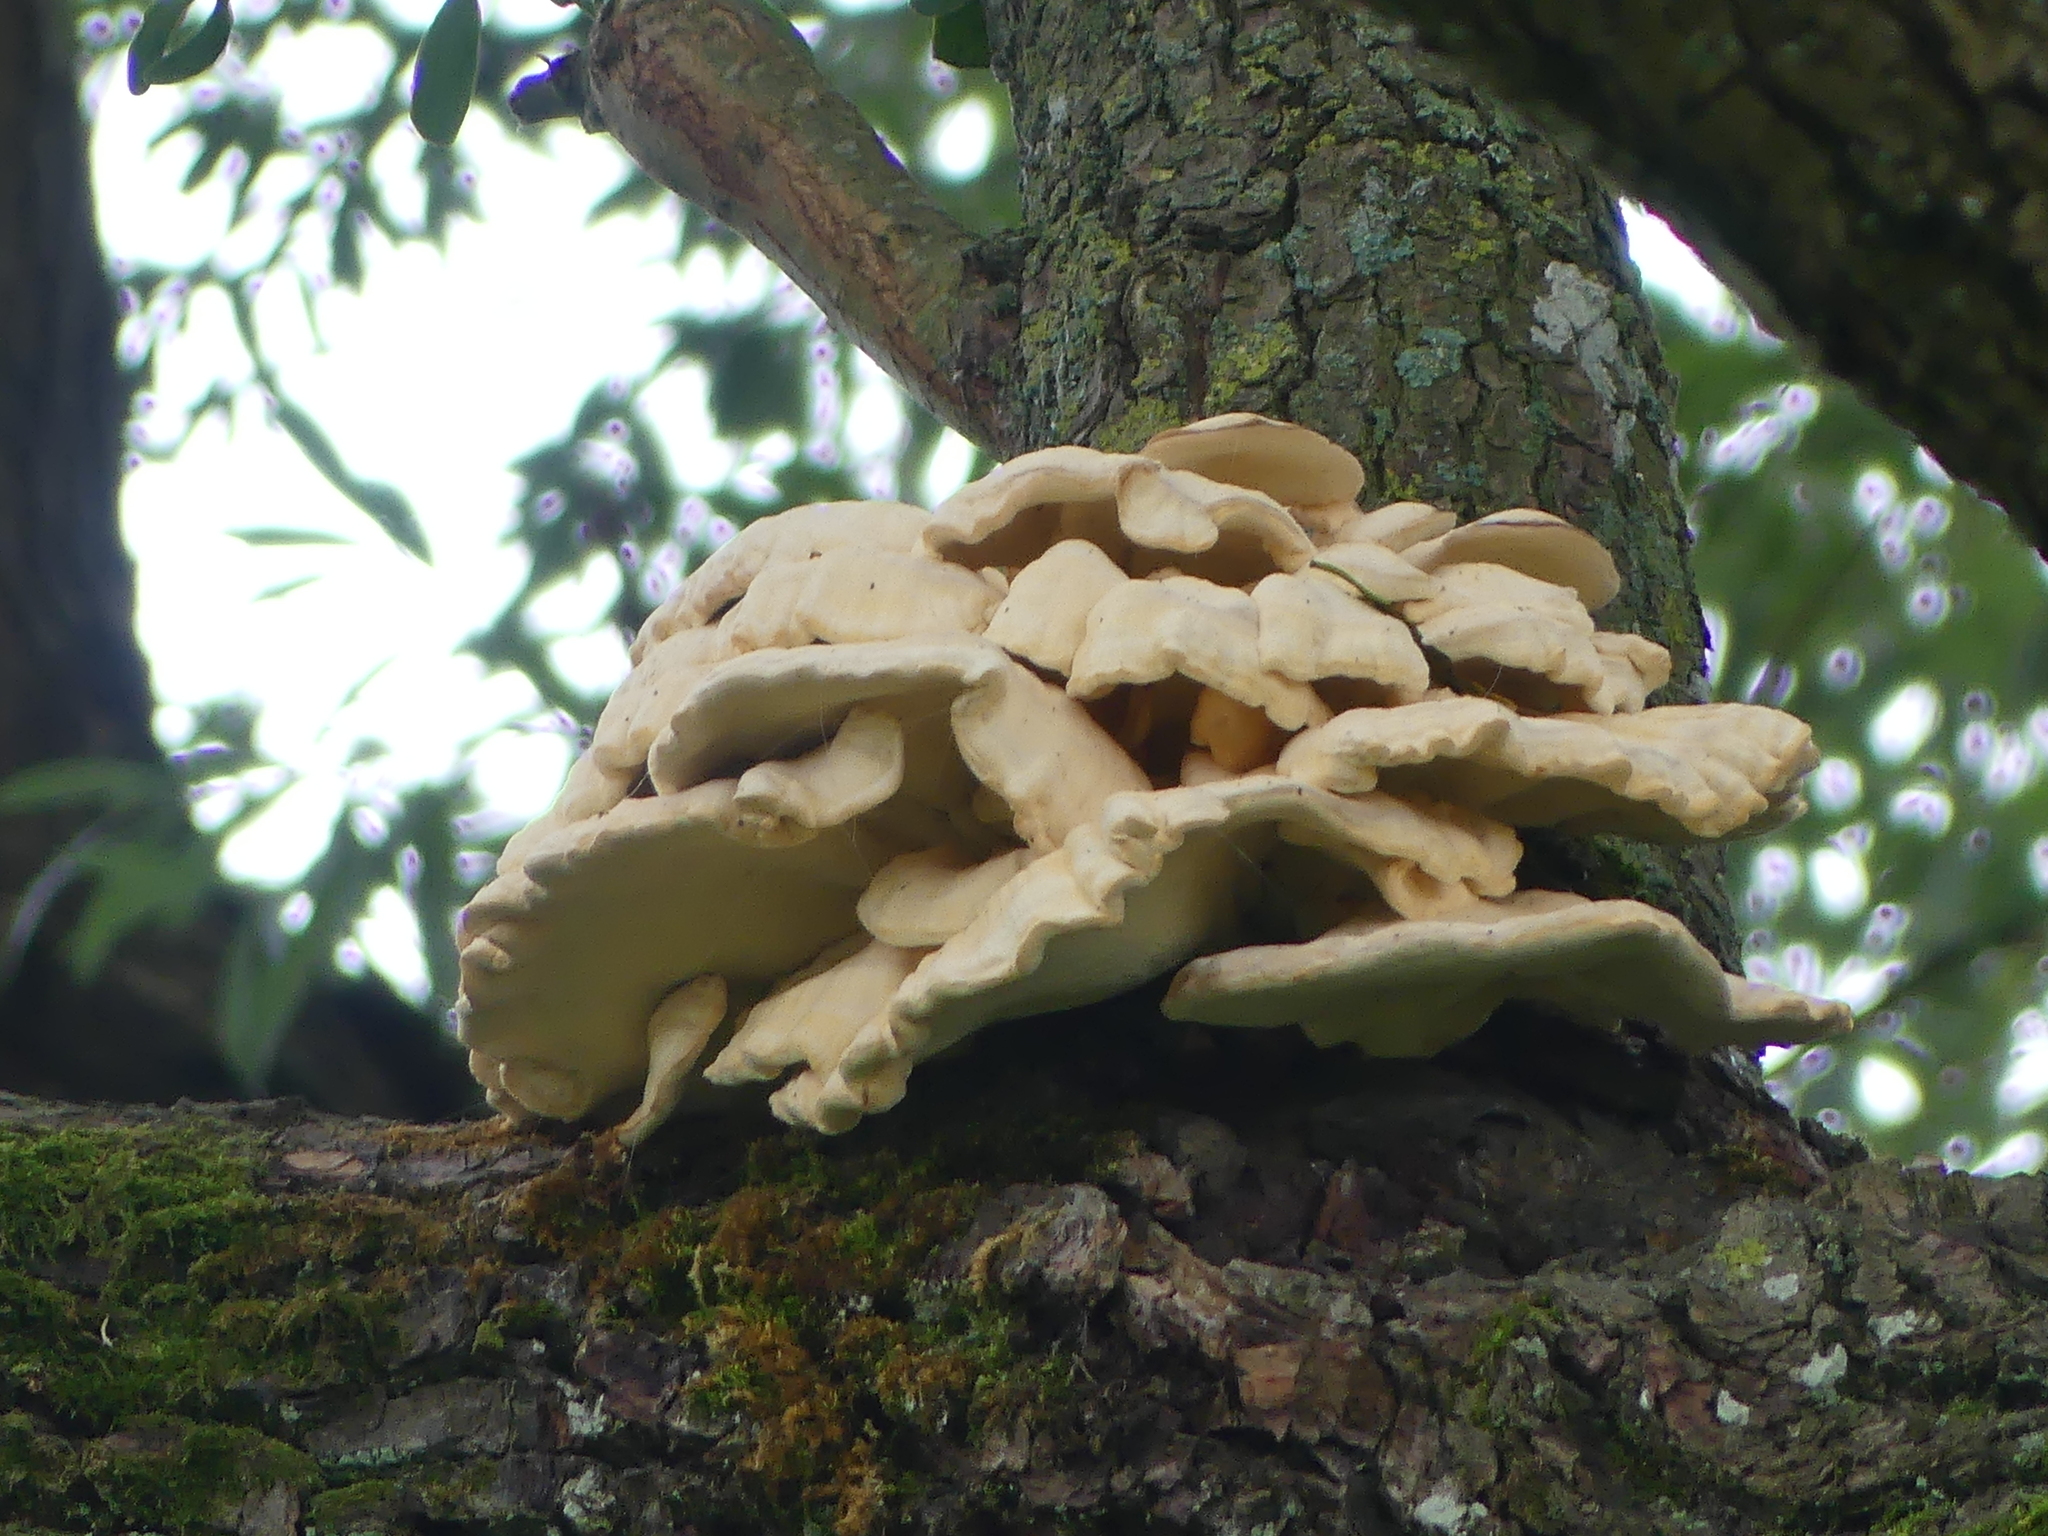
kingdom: Fungi
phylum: Basidiomycota
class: Agaricomycetes
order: Polyporales
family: Laetiporaceae
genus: Laetiporus
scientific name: Laetiporus sulphureus
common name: Chicken of the woods
